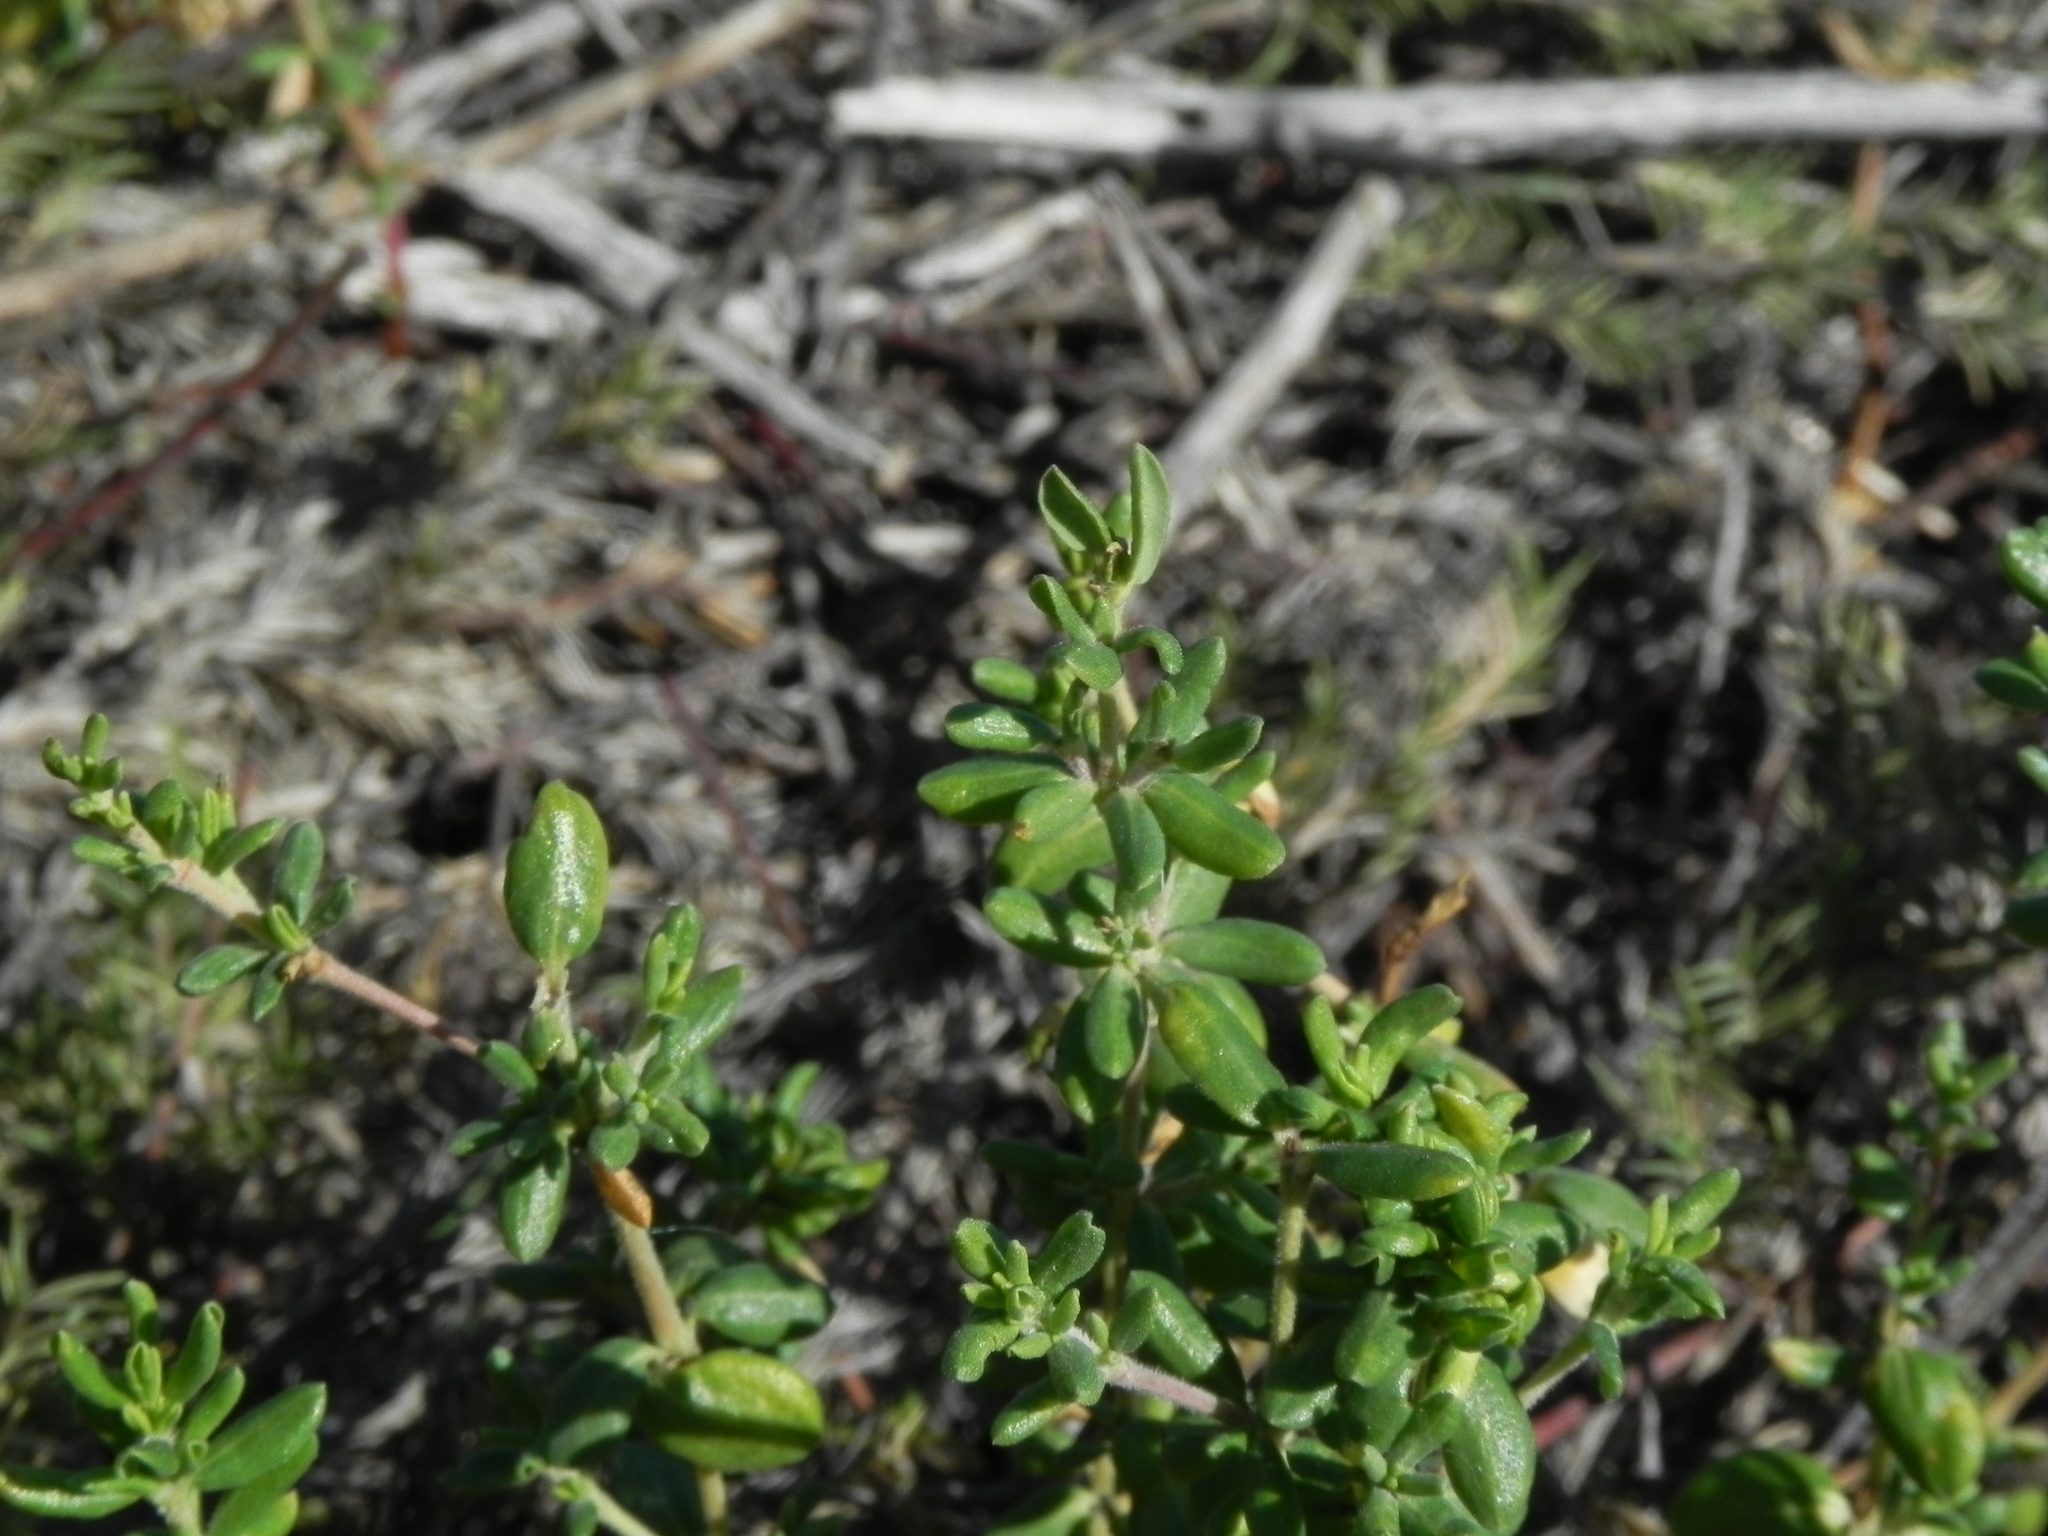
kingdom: Plantae
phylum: Tracheophyta
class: Magnoliopsida
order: Caryophyllales
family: Frankeniaceae
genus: Frankenia
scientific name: Frankenia salina
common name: Alkali seaheath
